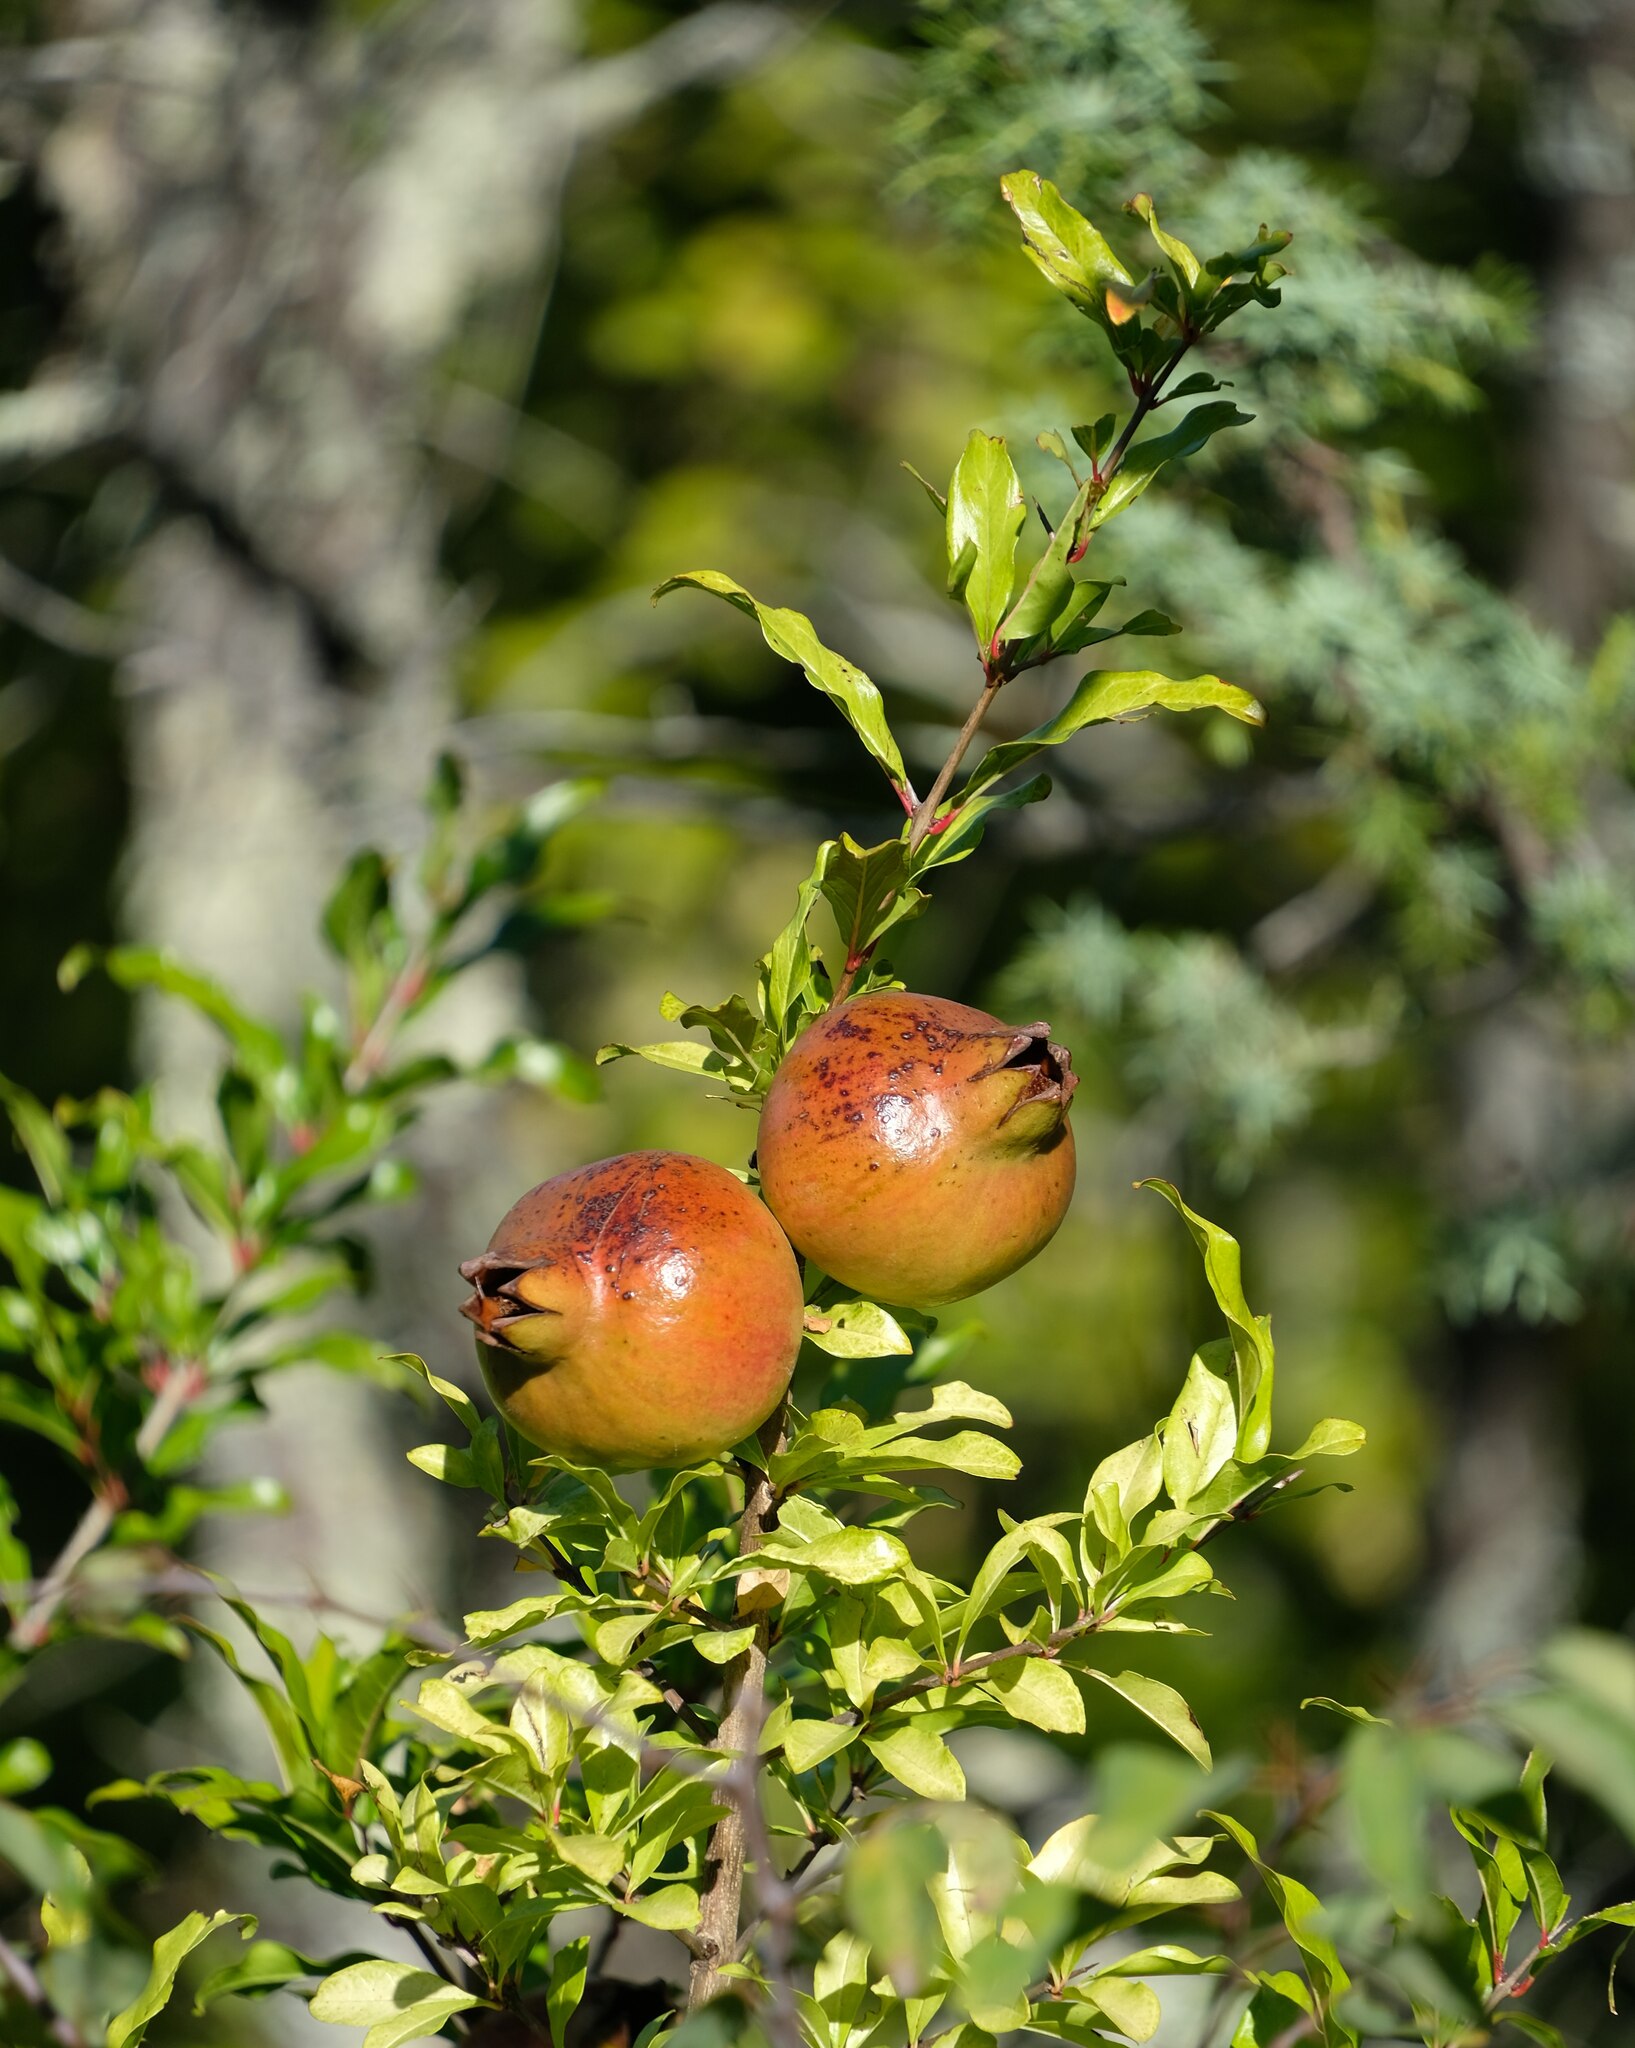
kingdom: Plantae
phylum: Tracheophyta
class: Magnoliopsida
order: Myrtales
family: Lythraceae
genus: Punica
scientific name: Punica granatum
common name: Pomegranate
